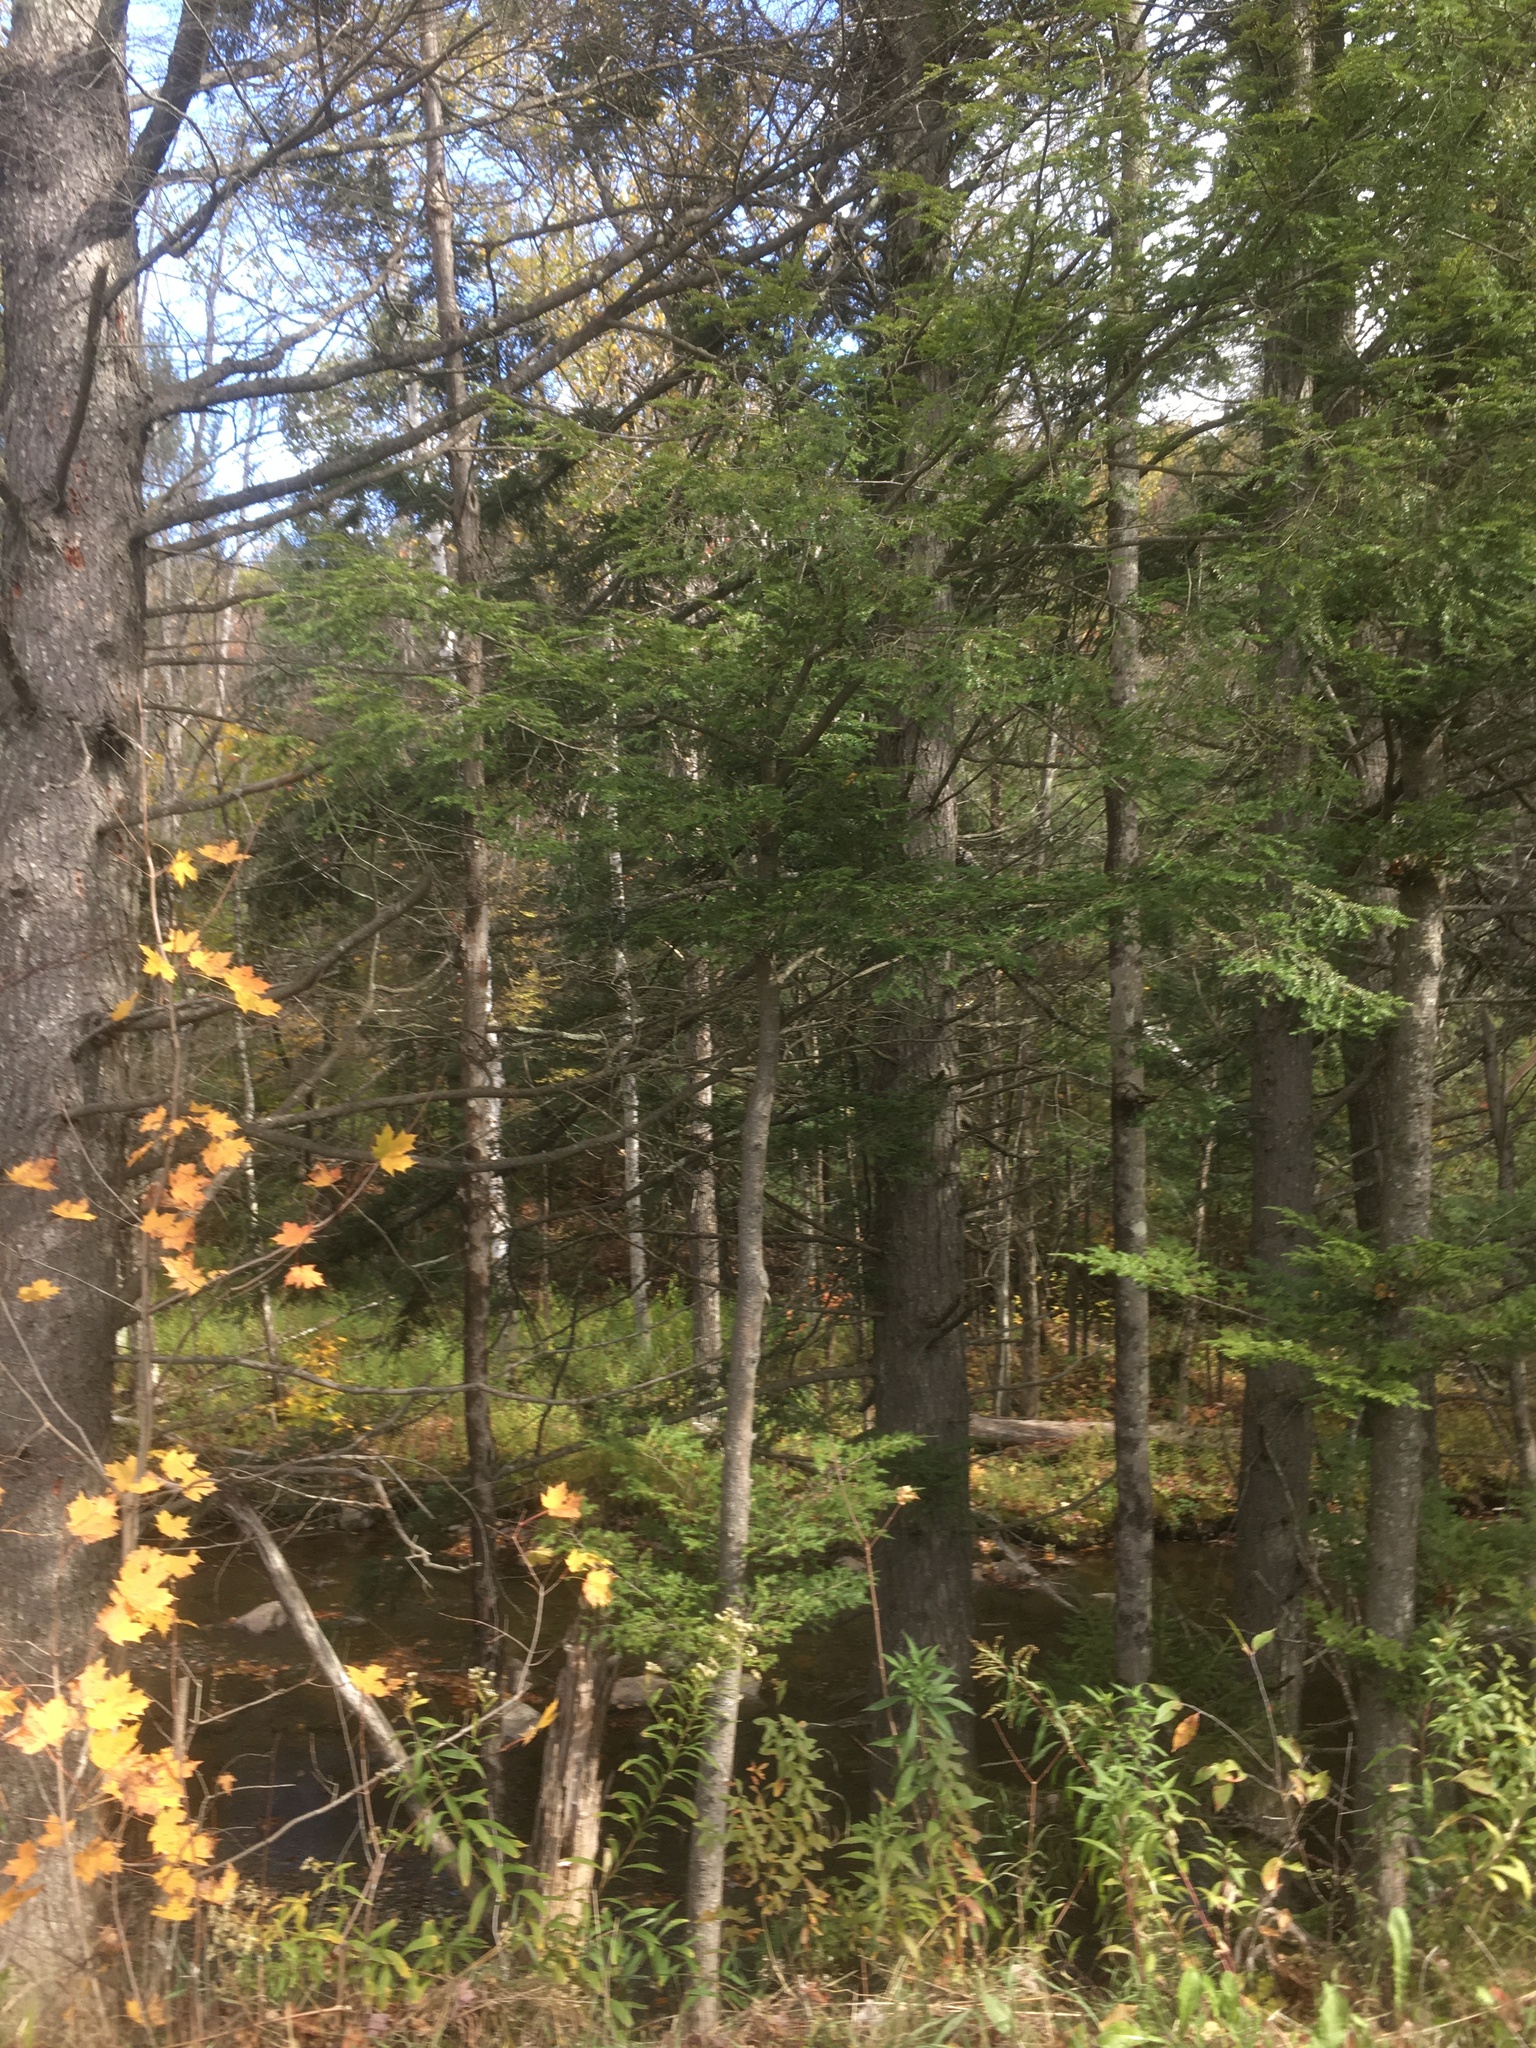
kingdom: Plantae
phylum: Tracheophyta
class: Pinopsida
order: Pinales
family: Pinaceae
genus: Tsuga
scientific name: Tsuga canadensis
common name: Eastern hemlock
